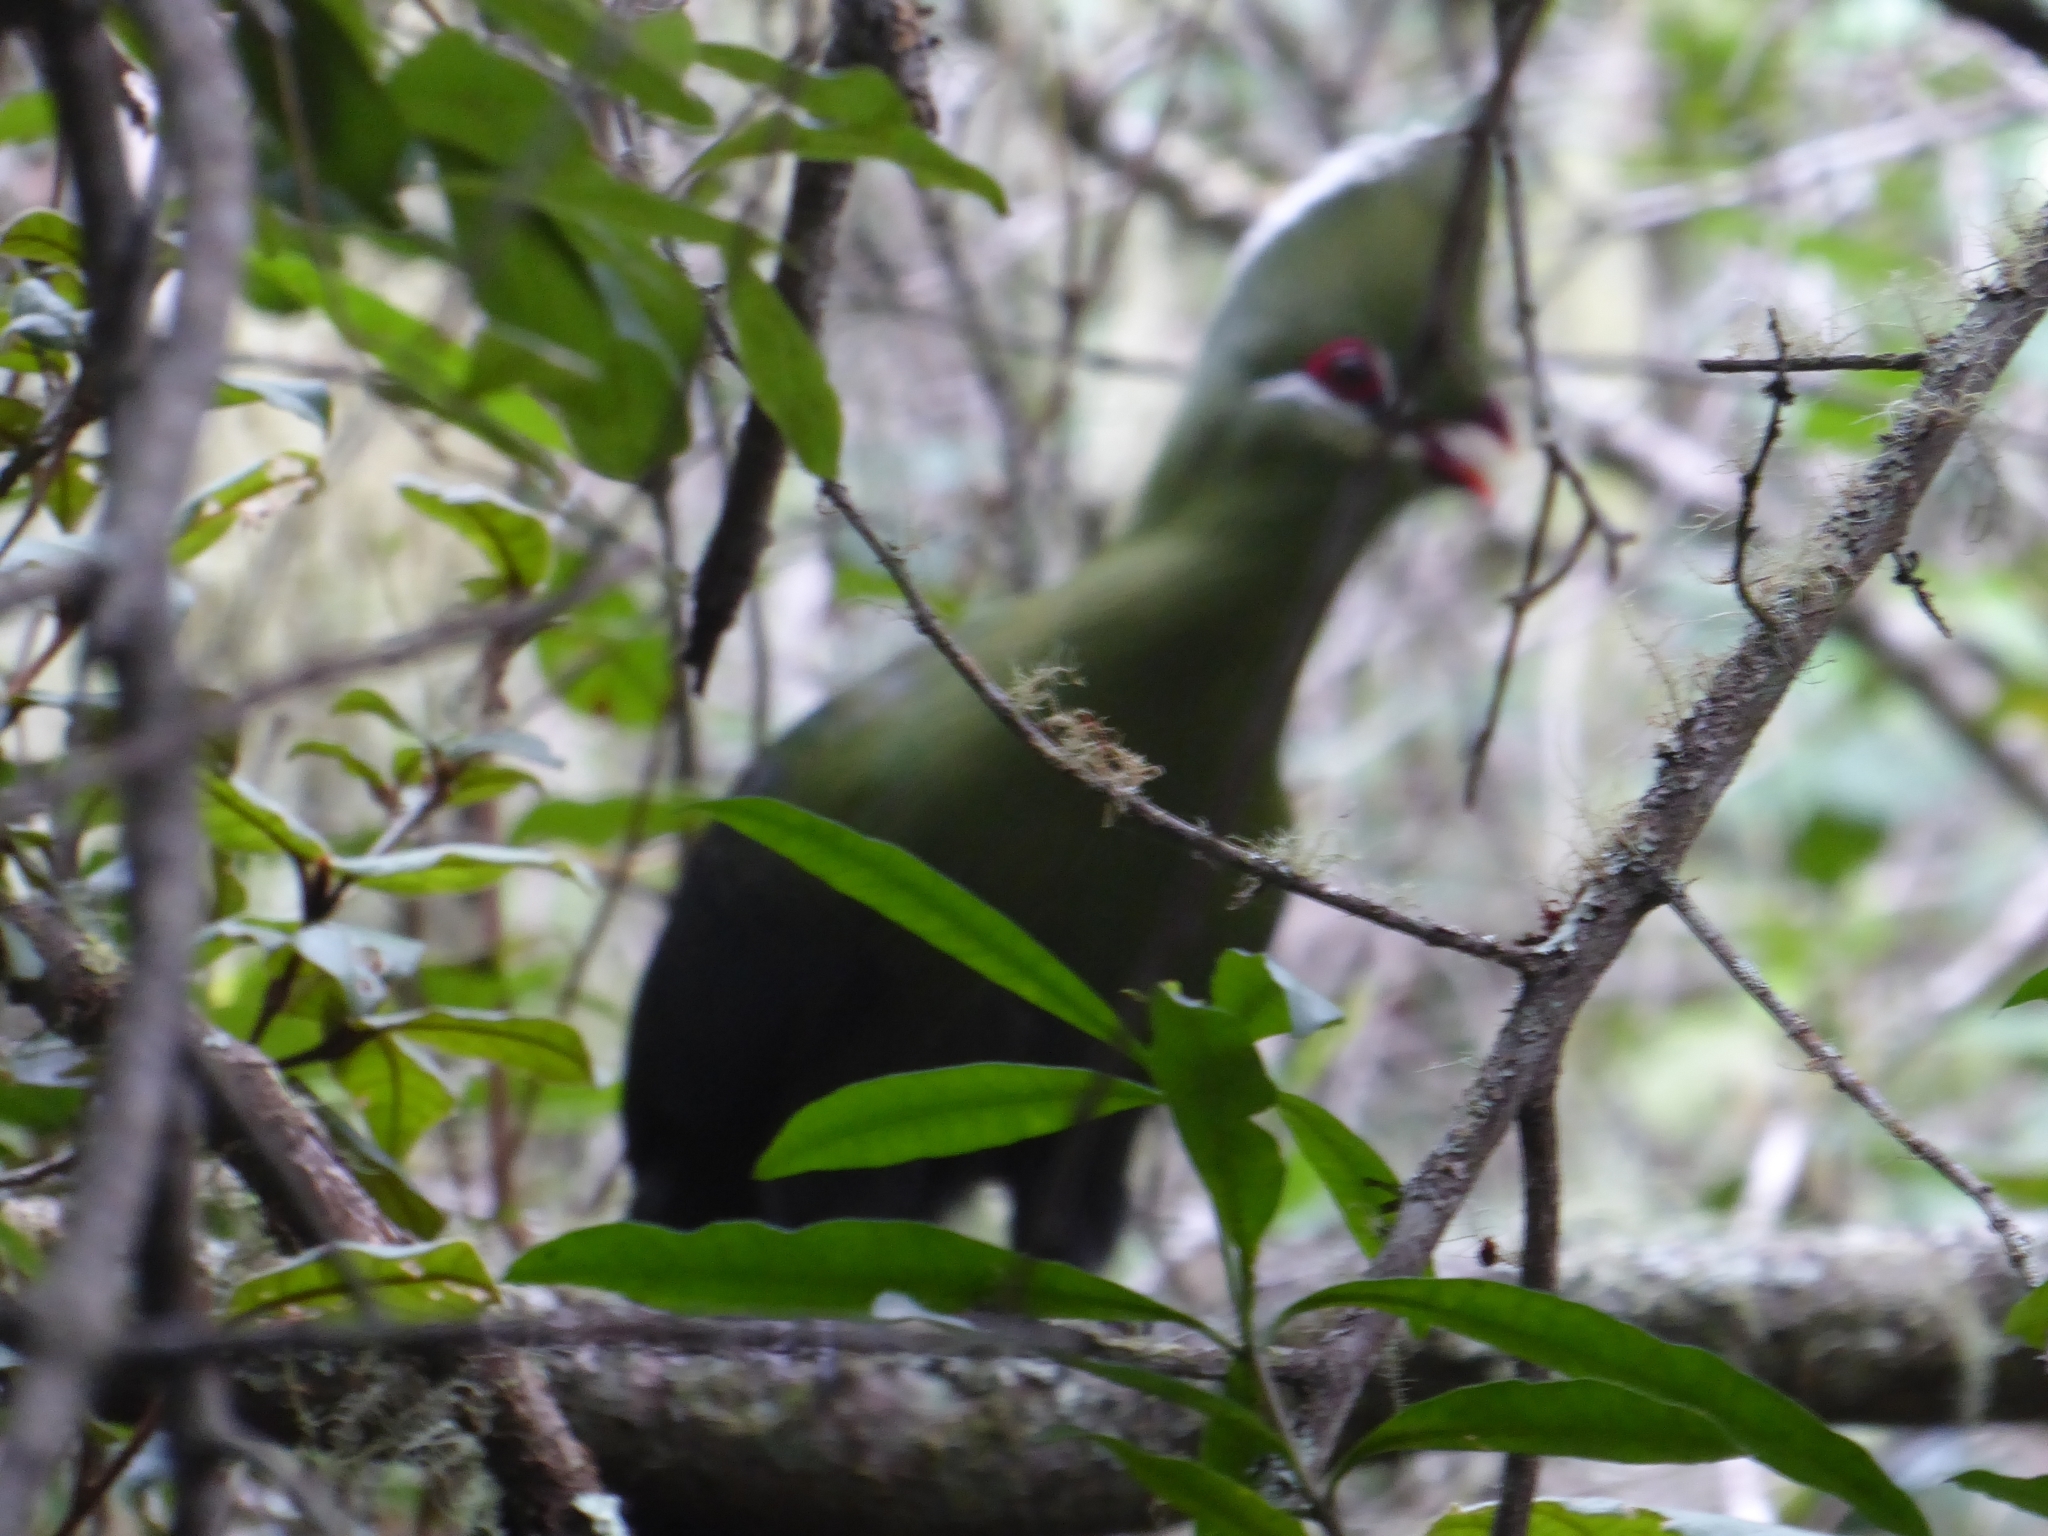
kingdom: Animalia
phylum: Chordata
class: Aves
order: Musophagiformes
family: Musophagidae
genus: Tauraco
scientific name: Tauraco corythaix
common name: Knysna turaco
